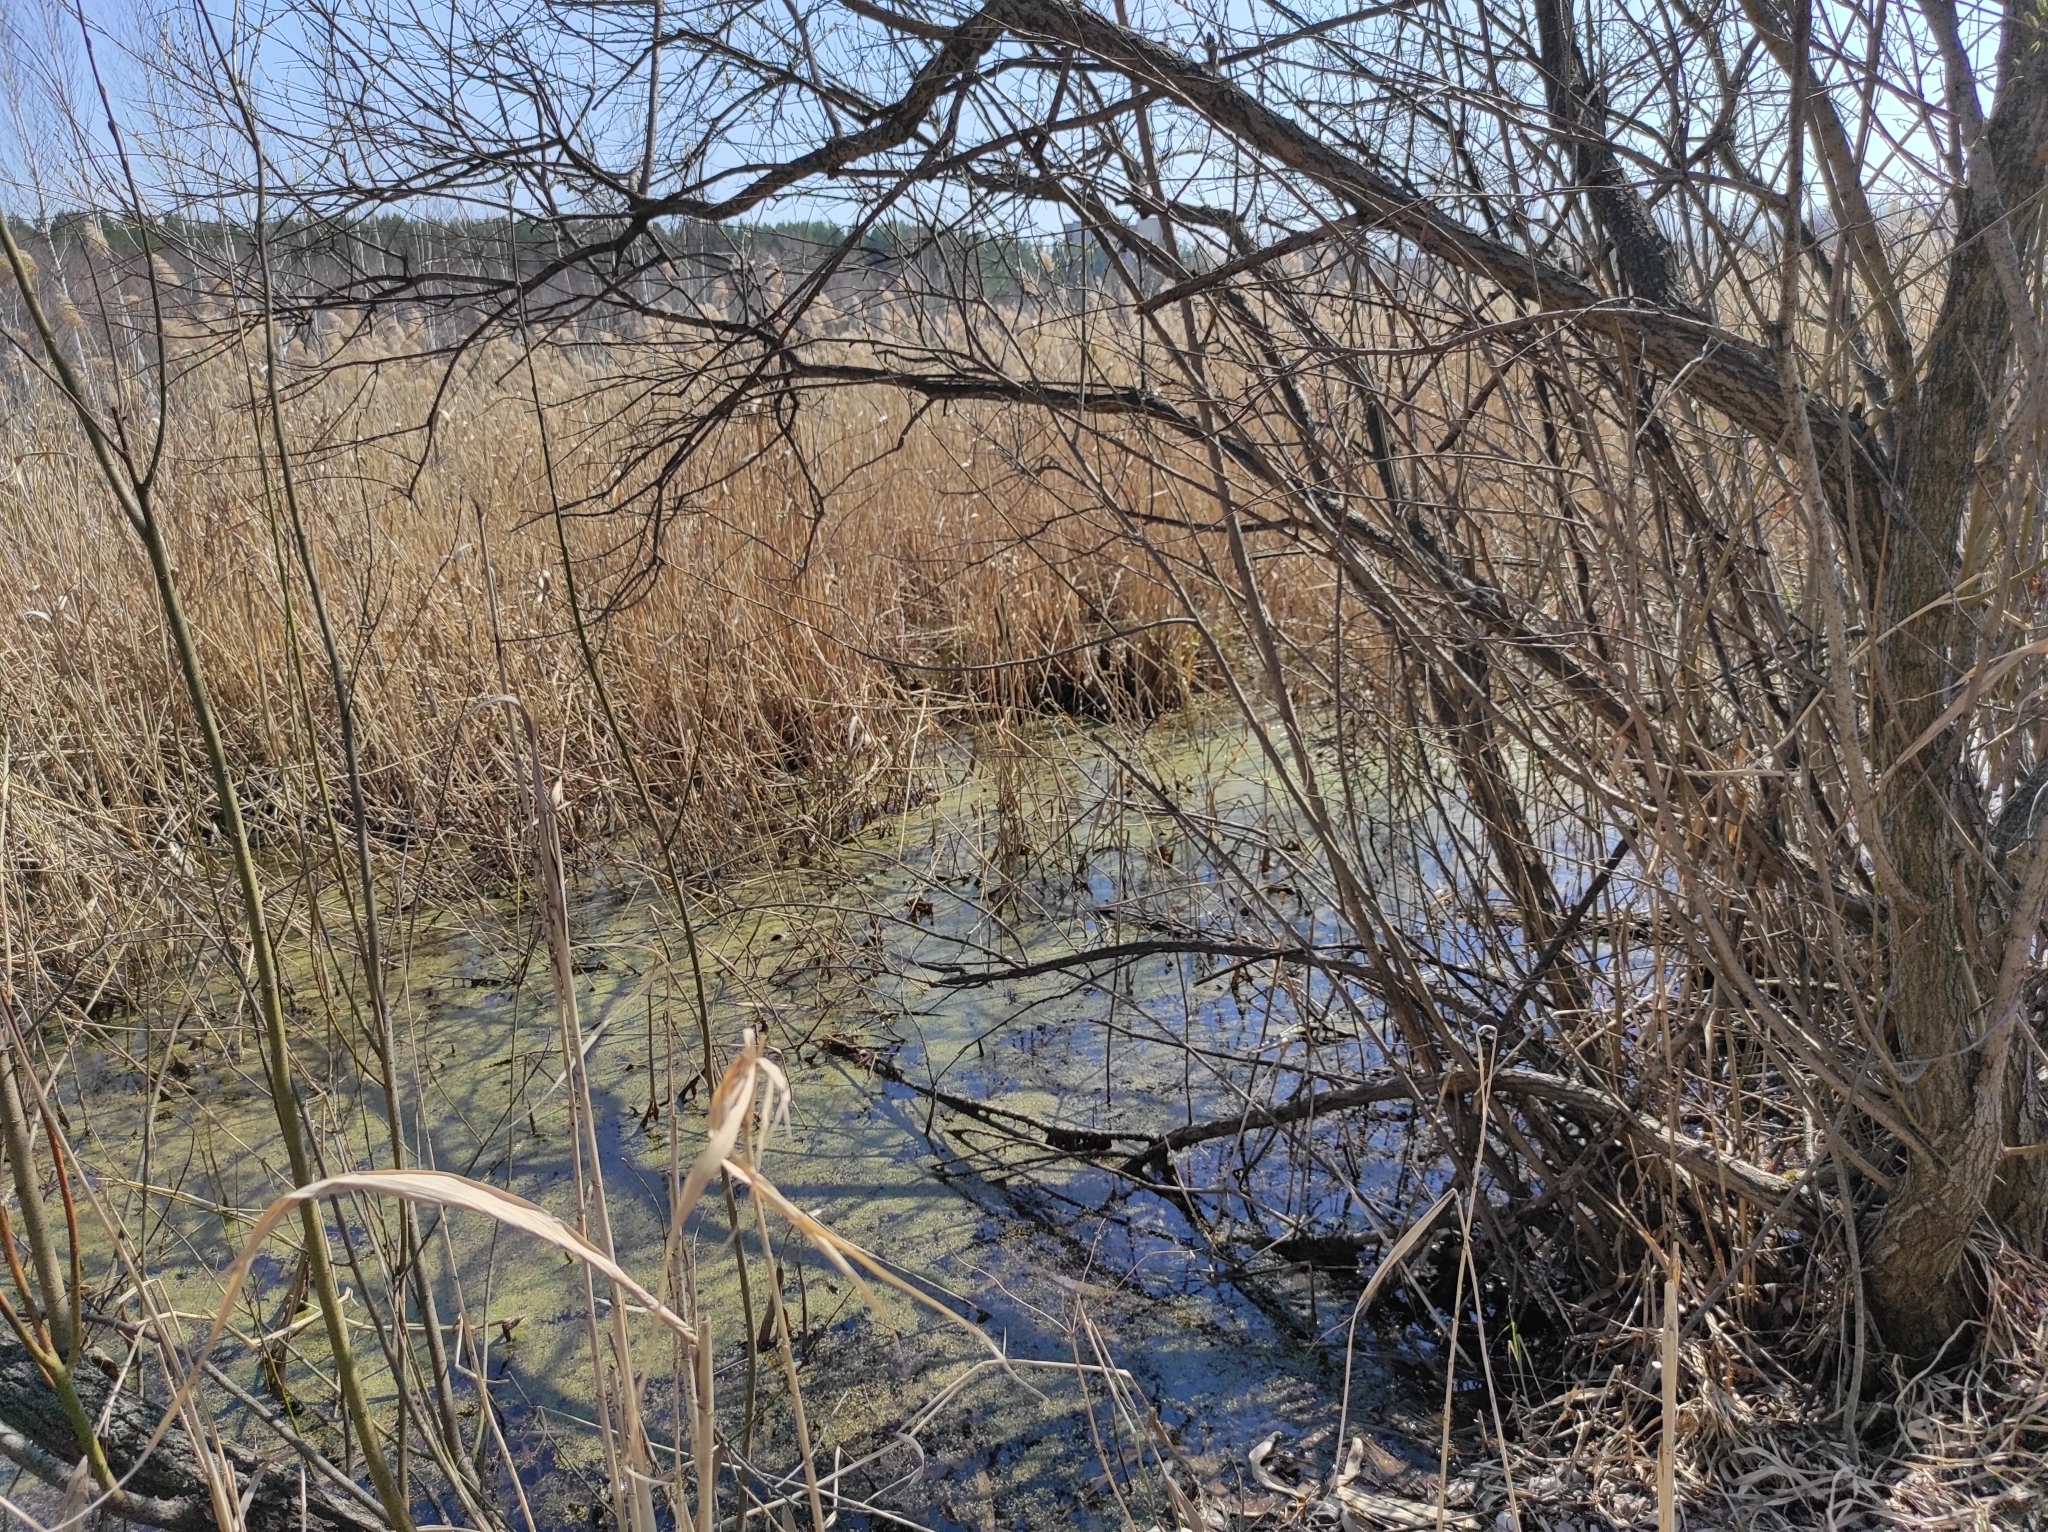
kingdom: Animalia
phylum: Chordata
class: Aves
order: Passeriformes
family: Phylloscopidae
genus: Phylloscopus
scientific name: Phylloscopus collybita
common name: Common chiffchaff
